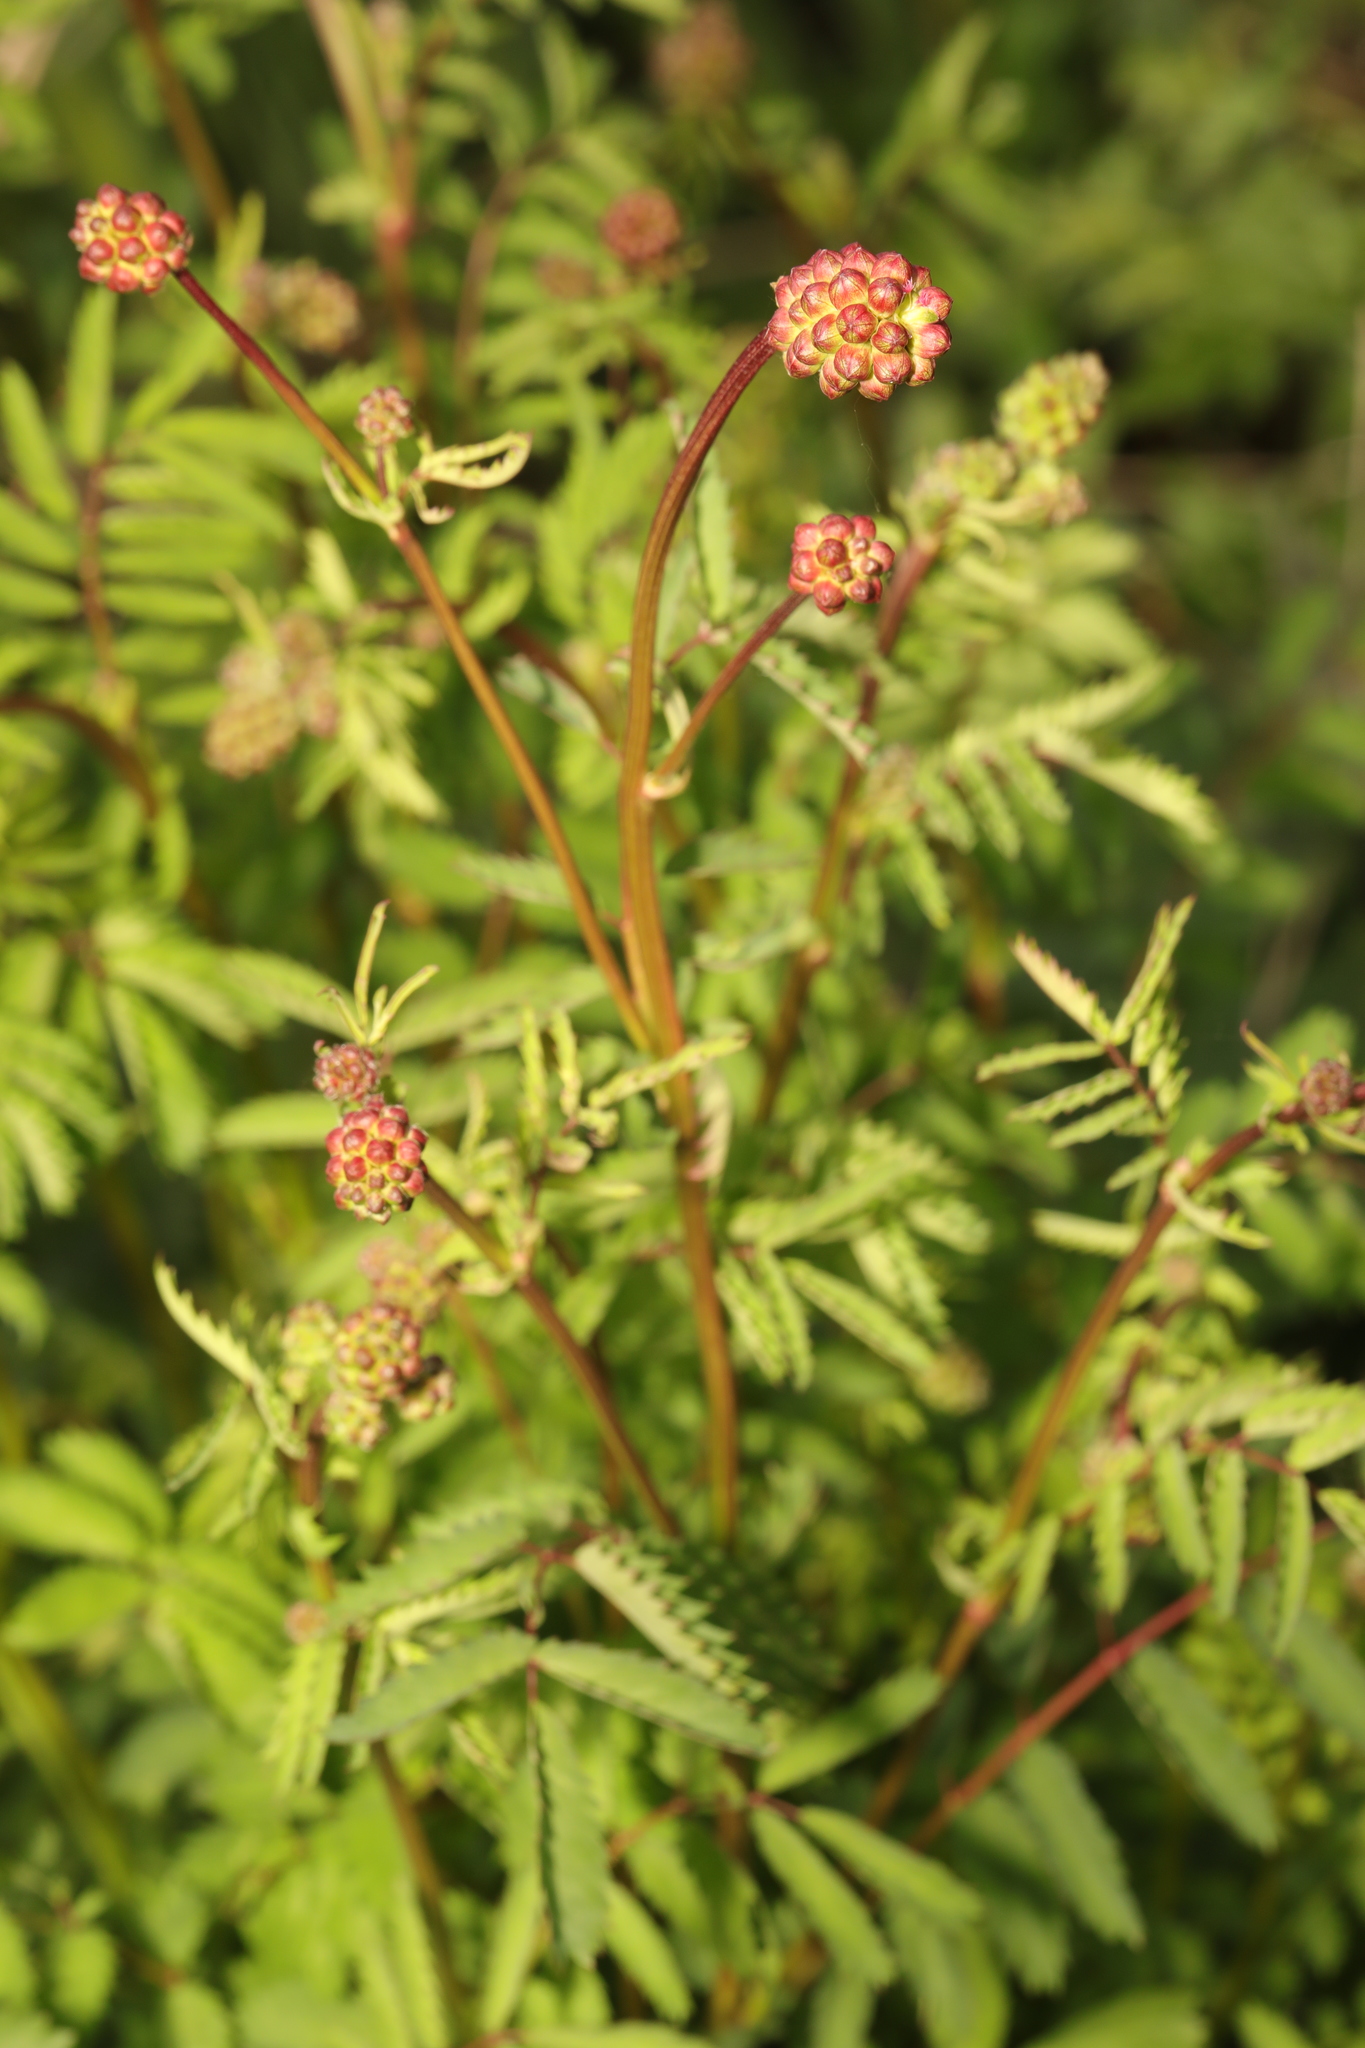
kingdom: Plantae
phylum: Tracheophyta
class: Magnoliopsida
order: Rosales
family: Rosaceae
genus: Poterium
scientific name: Poterium sanguisorba
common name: Salad burnet
